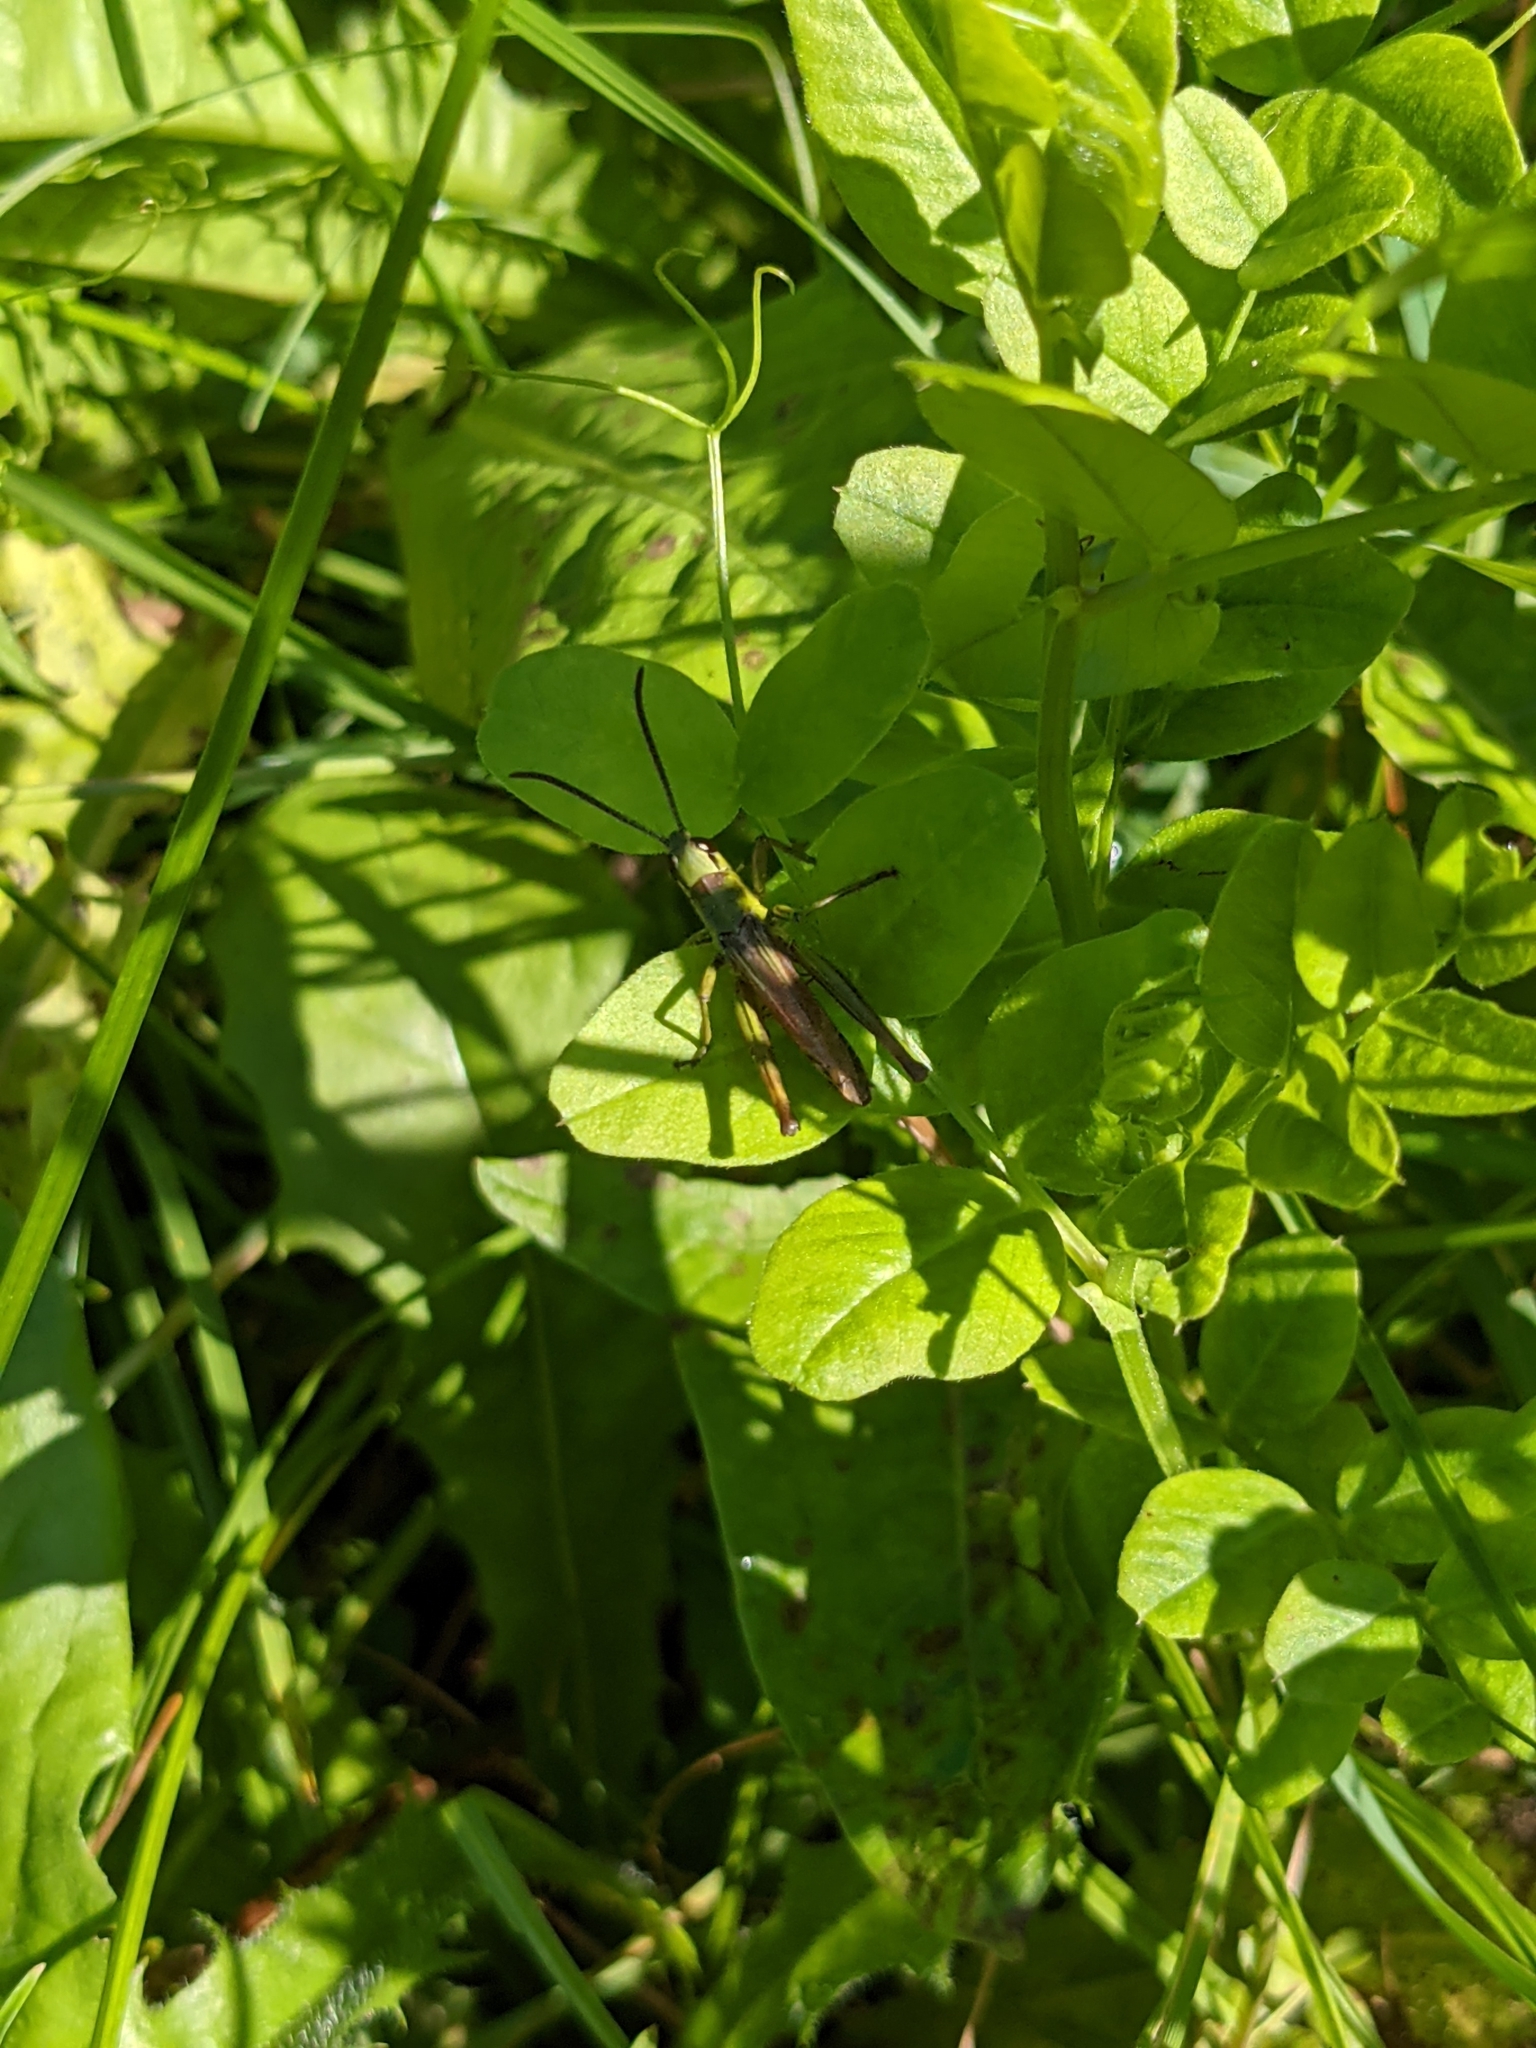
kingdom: Animalia
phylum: Arthropoda
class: Insecta
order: Orthoptera
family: Acrididae
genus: Pseudochorthippus
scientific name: Pseudochorthippus parallelus
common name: Meadow grasshopper
